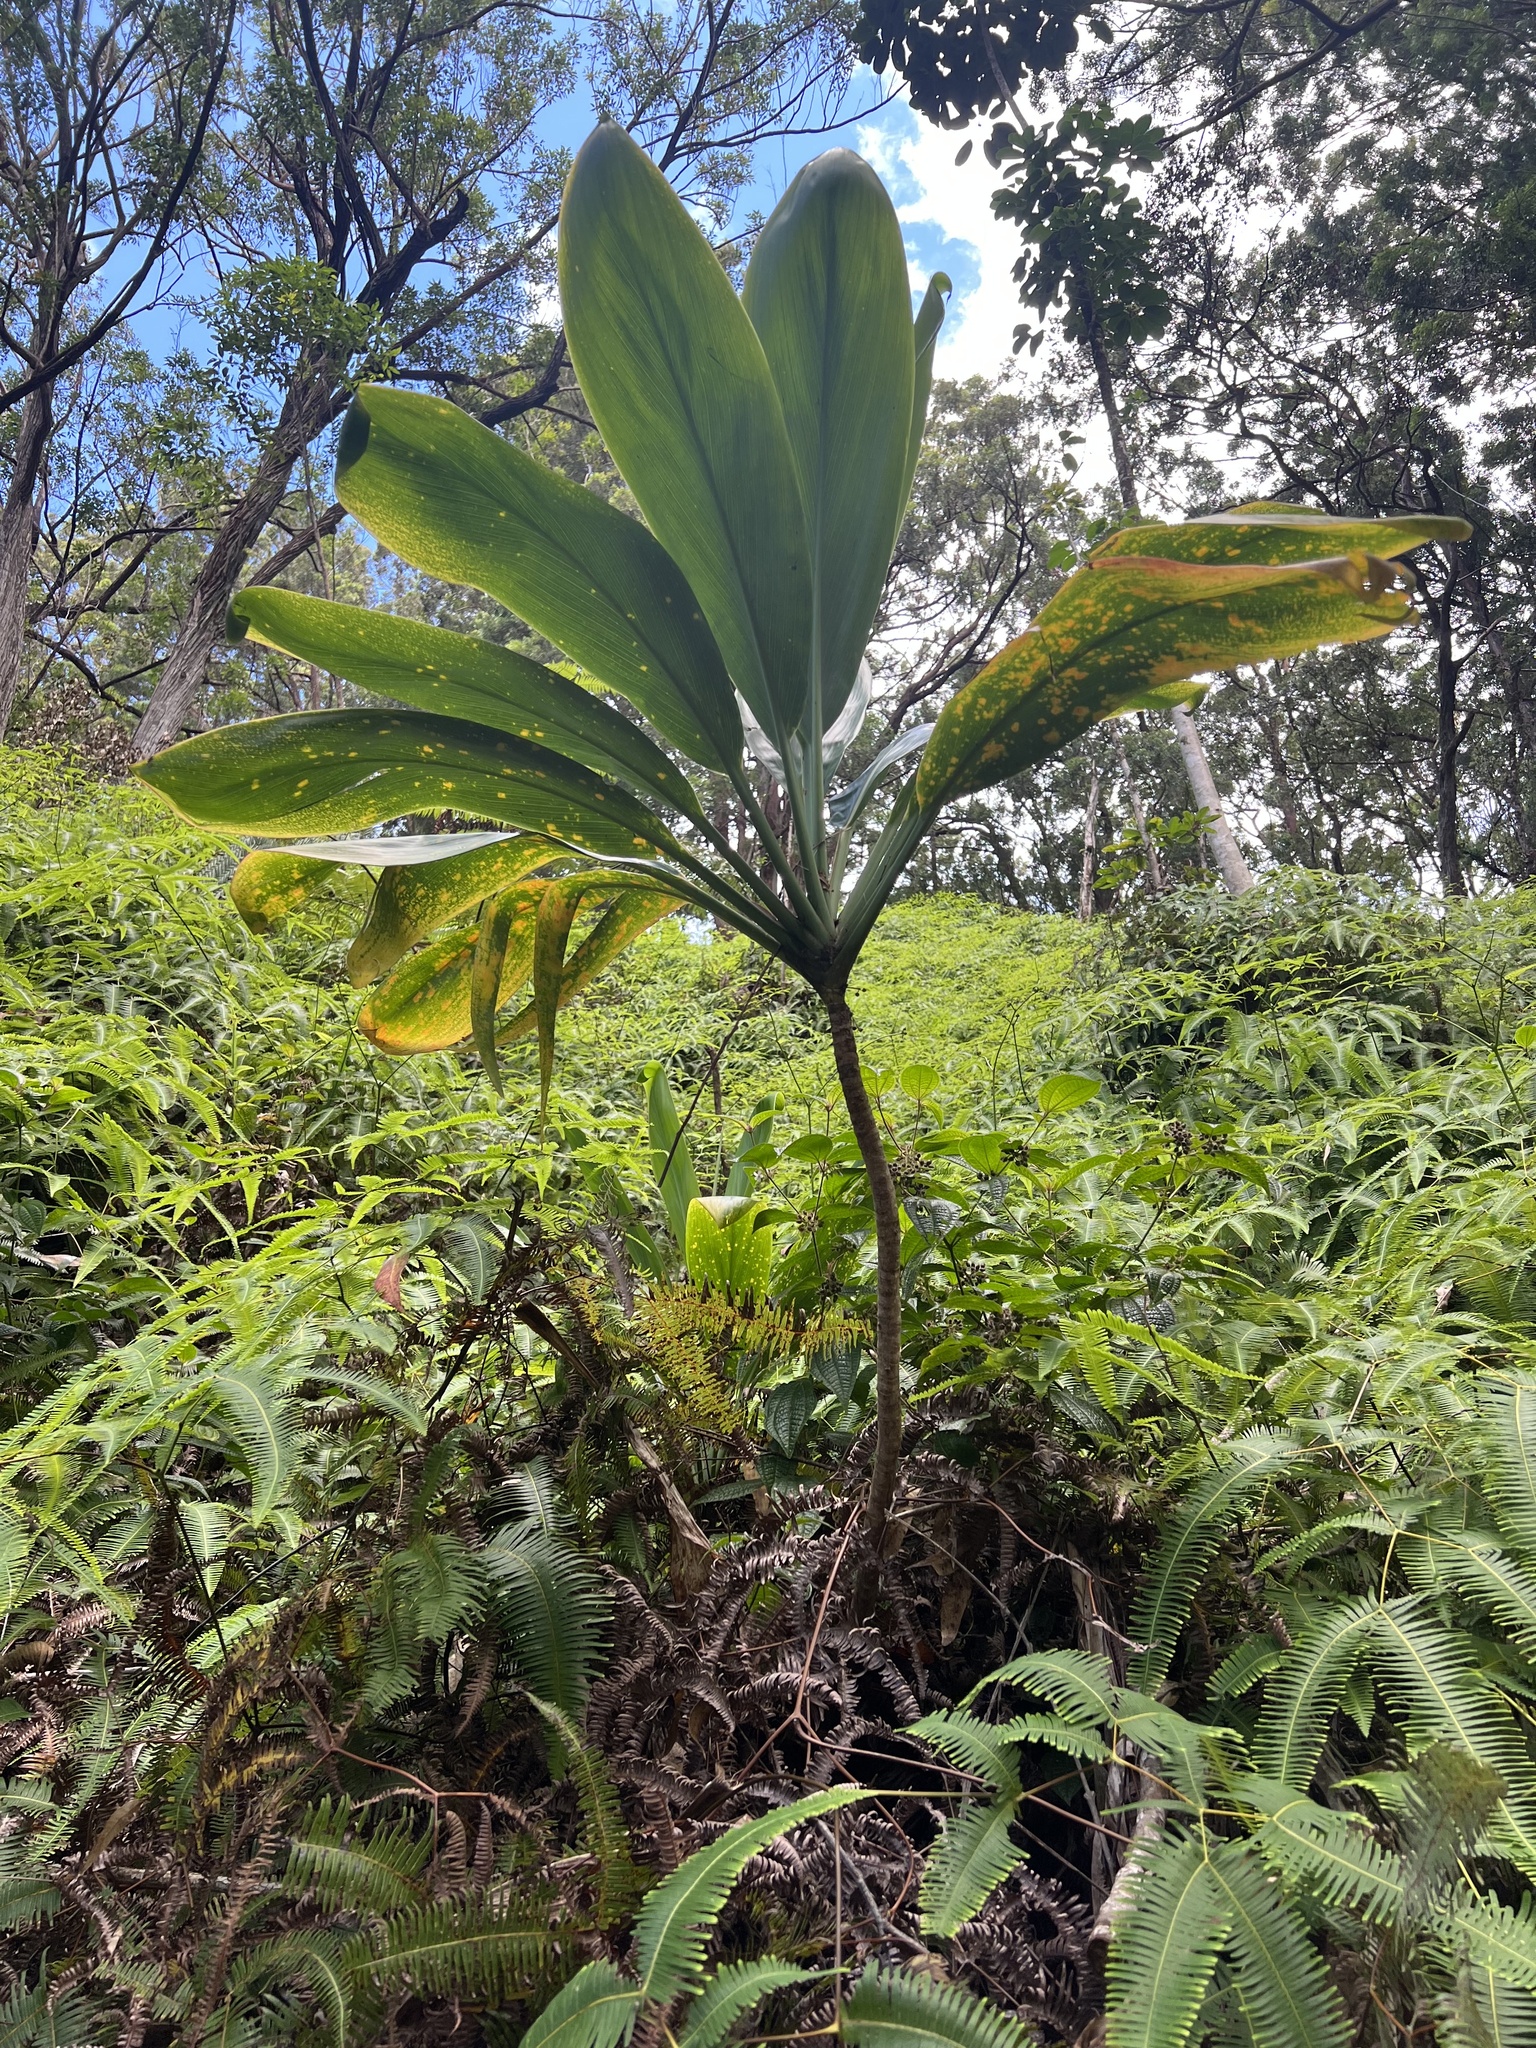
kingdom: Plantae
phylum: Tracheophyta
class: Liliopsida
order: Asparagales
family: Asparagaceae
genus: Cordyline
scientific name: Cordyline fruticosa
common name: Good-luck-plant
